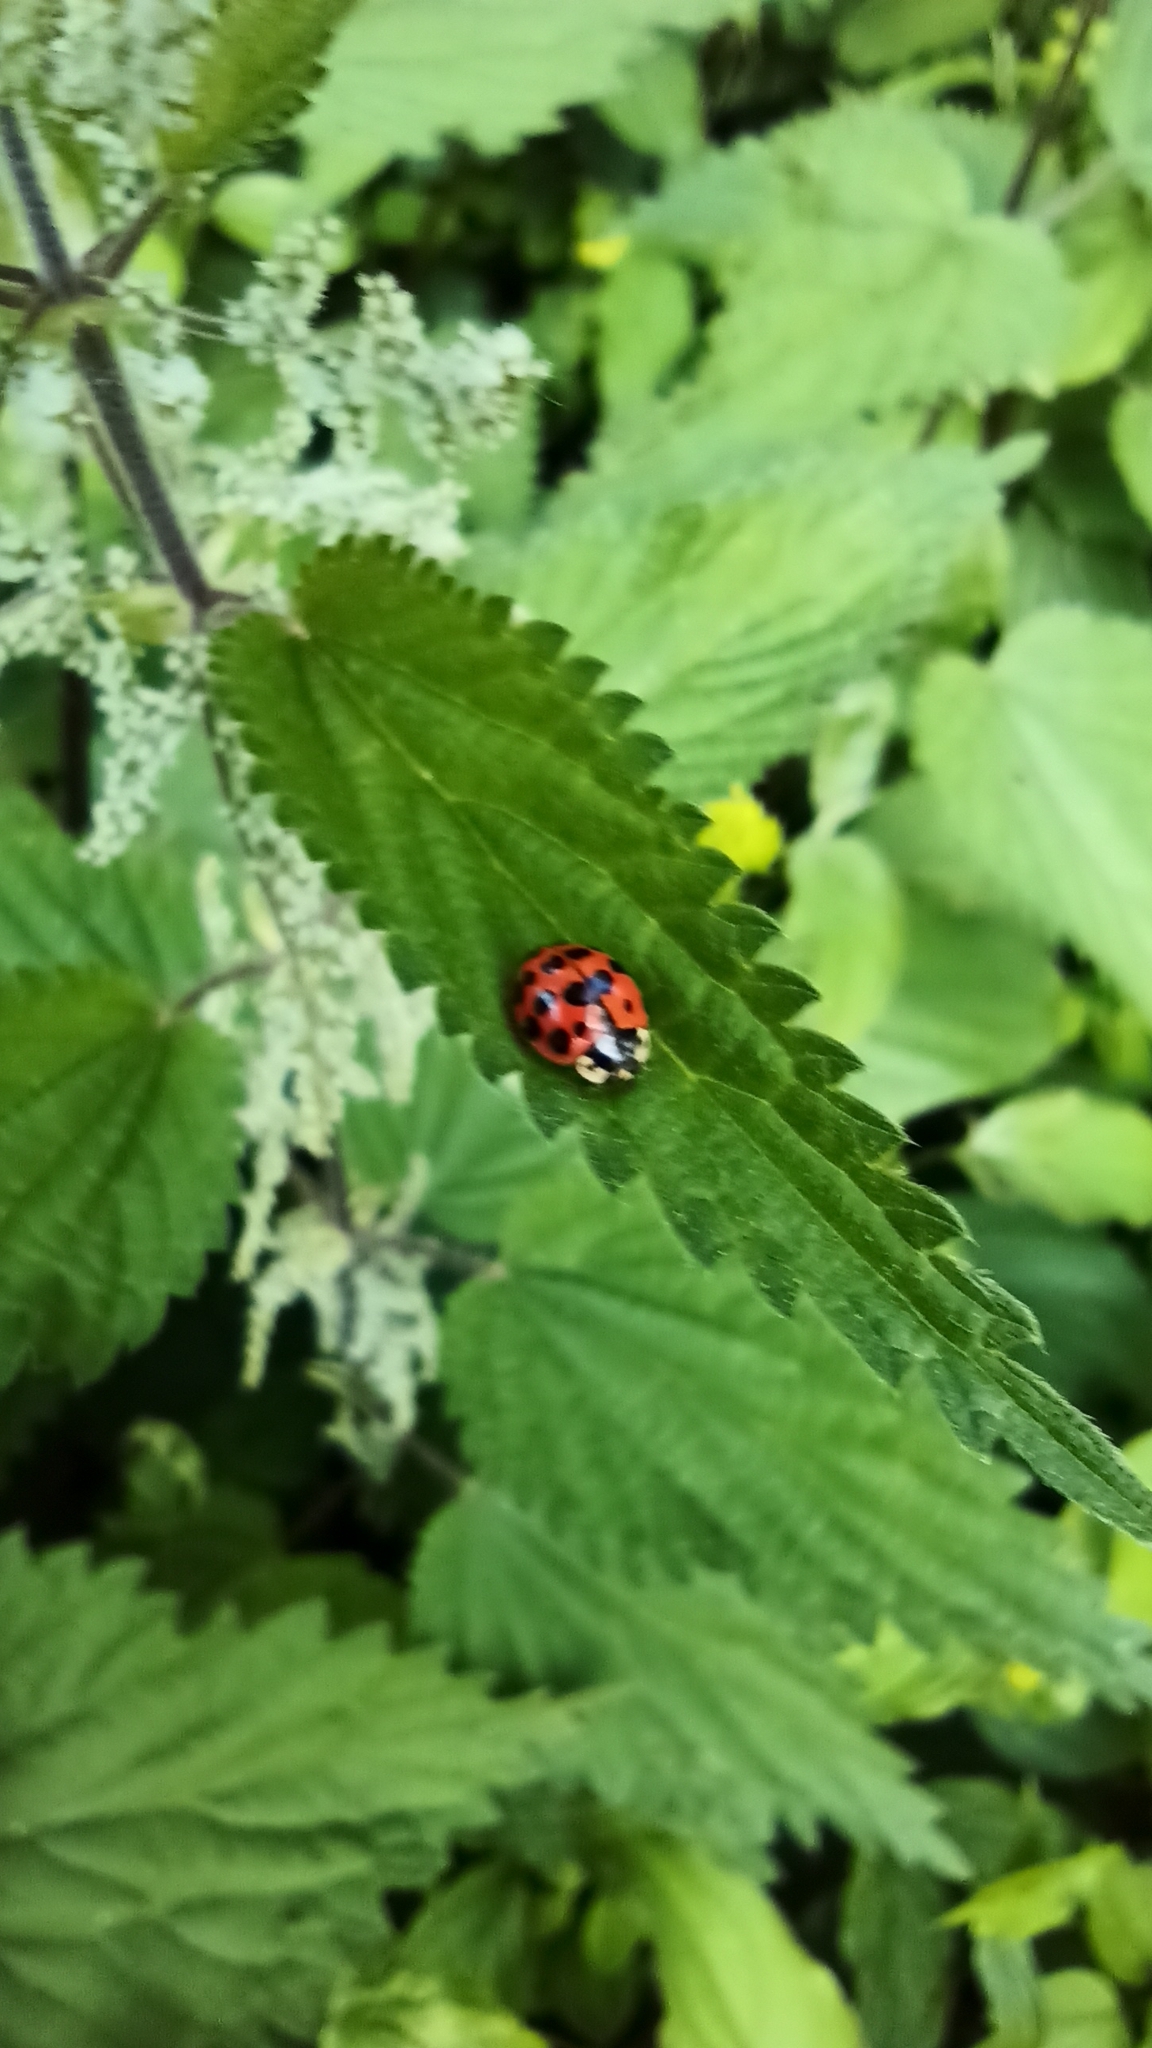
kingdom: Animalia
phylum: Arthropoda
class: Insecta
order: Coleoptera
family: Coccinellidae
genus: Harmonia
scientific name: Harmonia axyridis
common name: Harlequin ladybird
